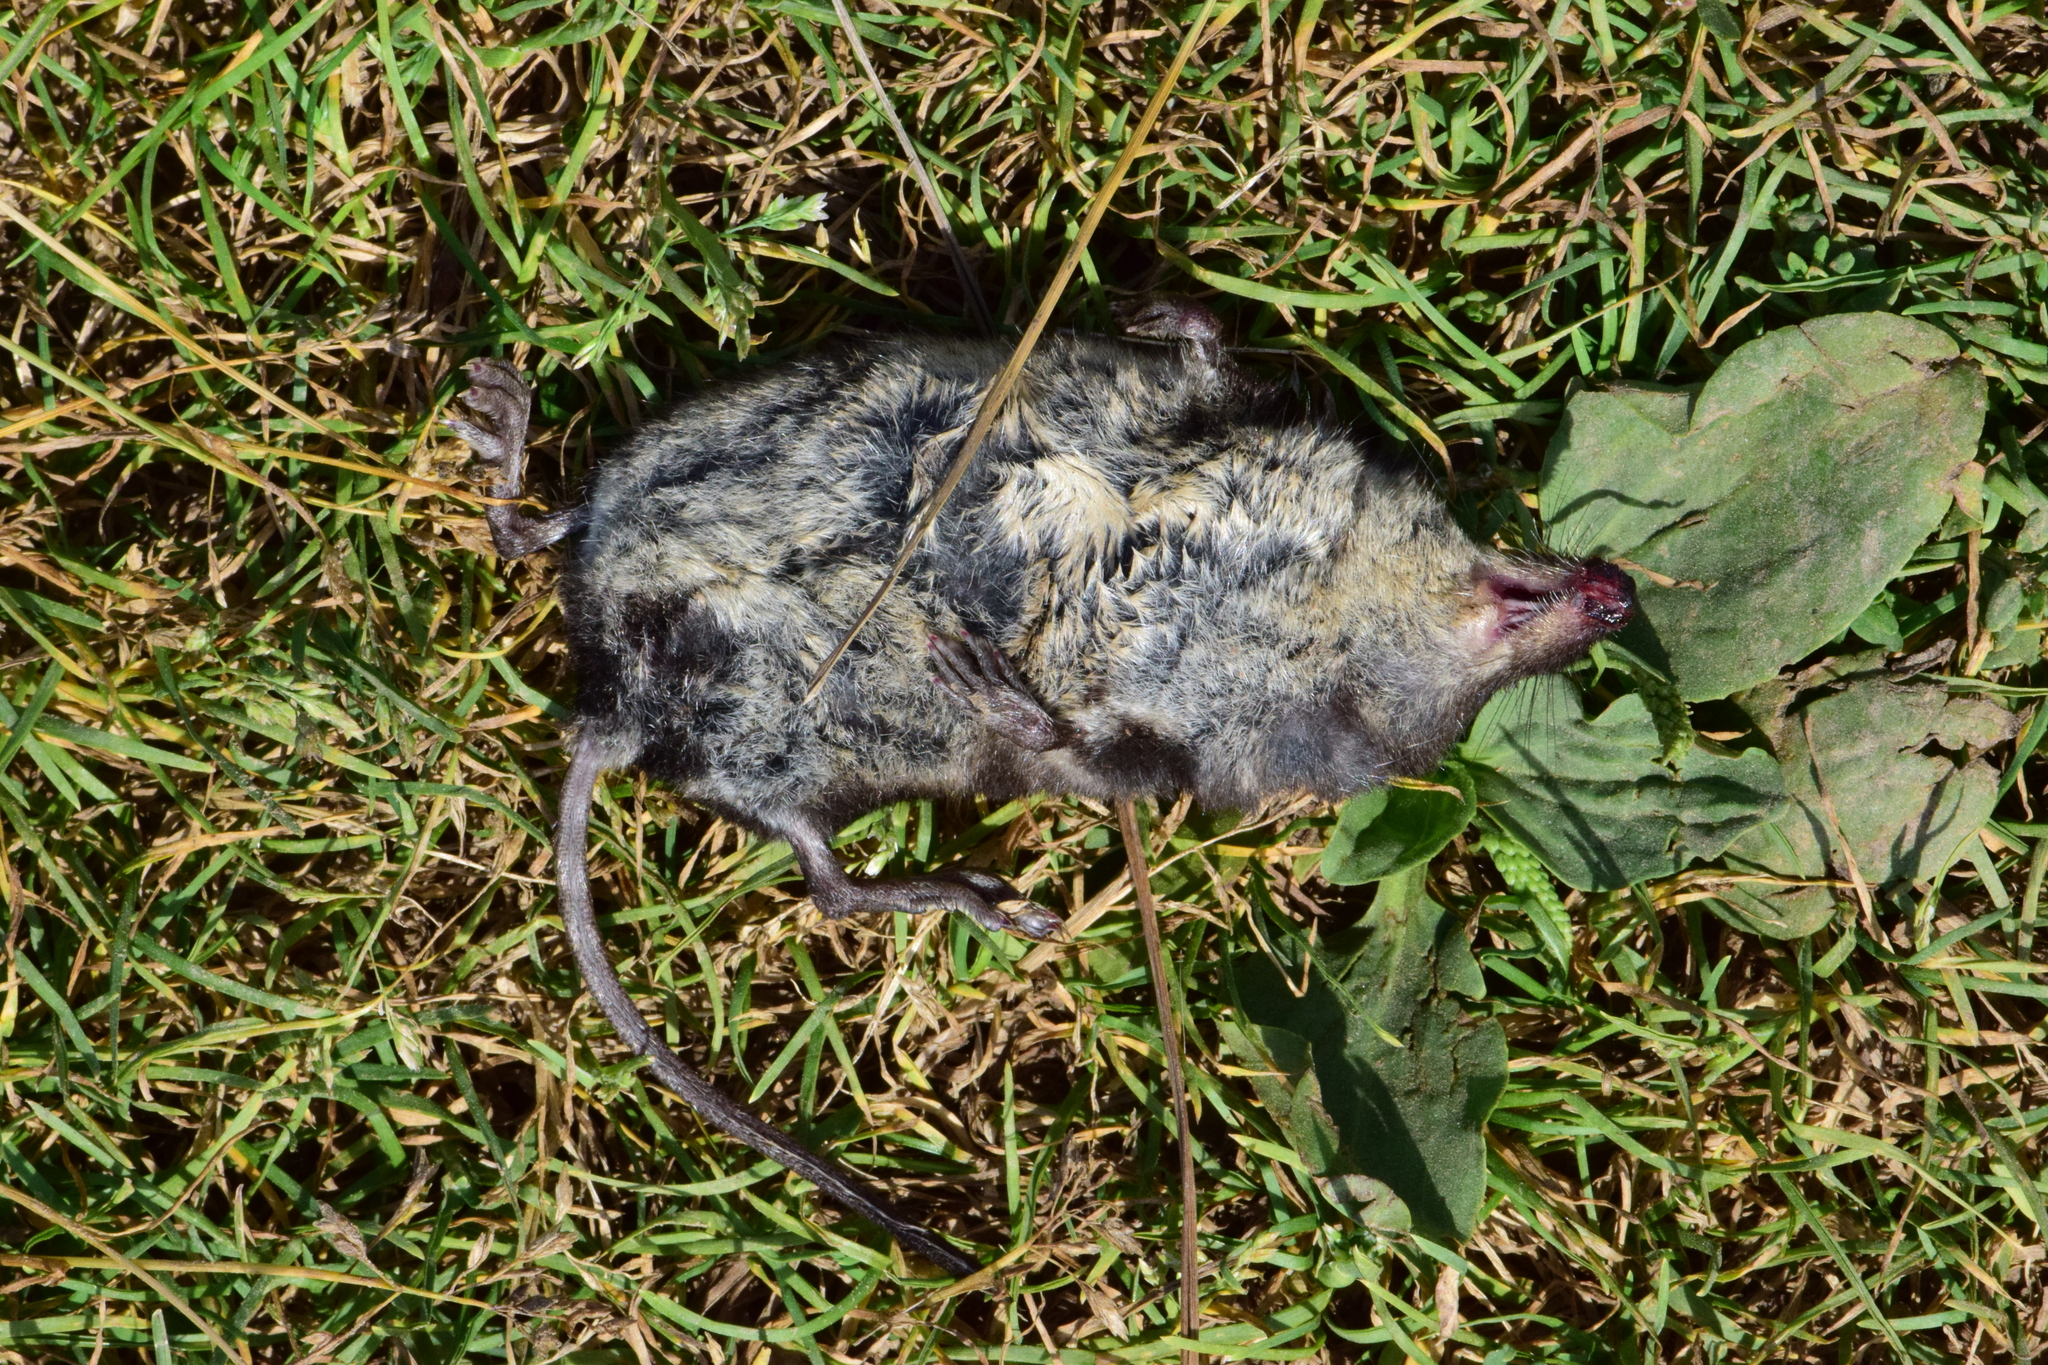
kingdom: Animalia
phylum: Chordata
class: Mammalia
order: Soricomorpha
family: Soricidae
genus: Neomys
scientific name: Neomys fodiens
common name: Eurasian water shrew
